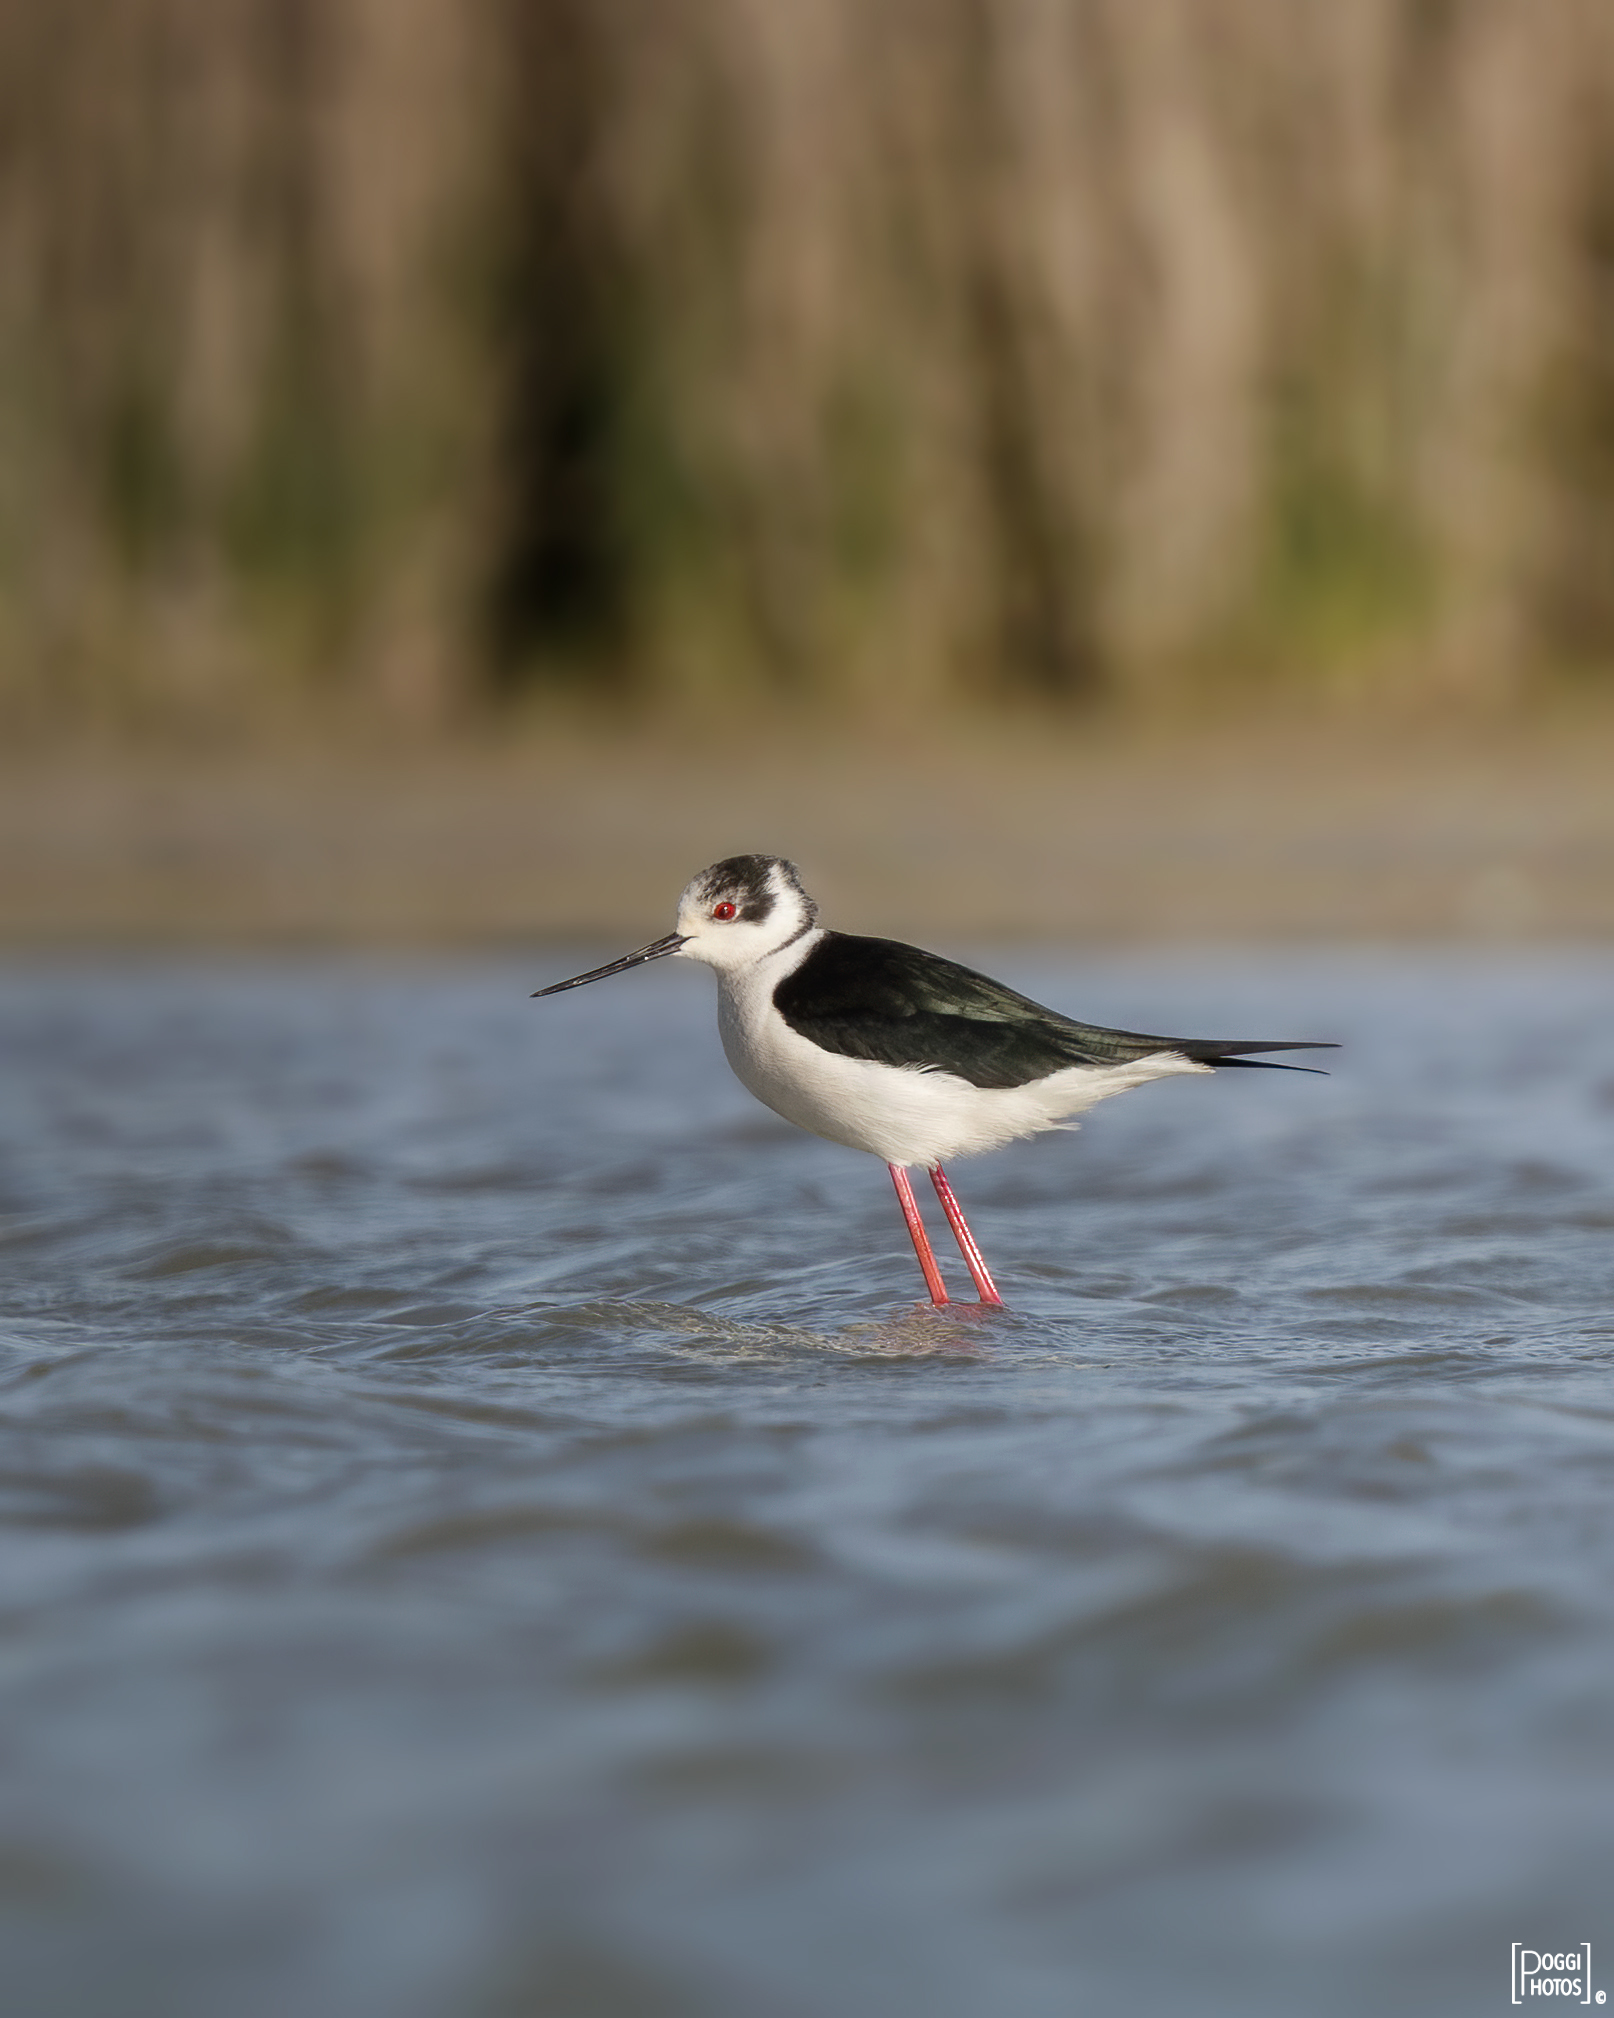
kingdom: Animalia
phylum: Chordata
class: Aves
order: Charadriiformes
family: Recurvirostridae
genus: Himantopus
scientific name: Himantopus himantopus
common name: Black-winged stilt
